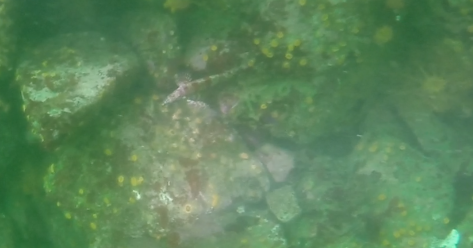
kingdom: Animalia
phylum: Chordata
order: Scorpaeniformes
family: Hexagrammidae
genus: Oxylebius
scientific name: Oxylebius pictus
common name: Painted greenling
